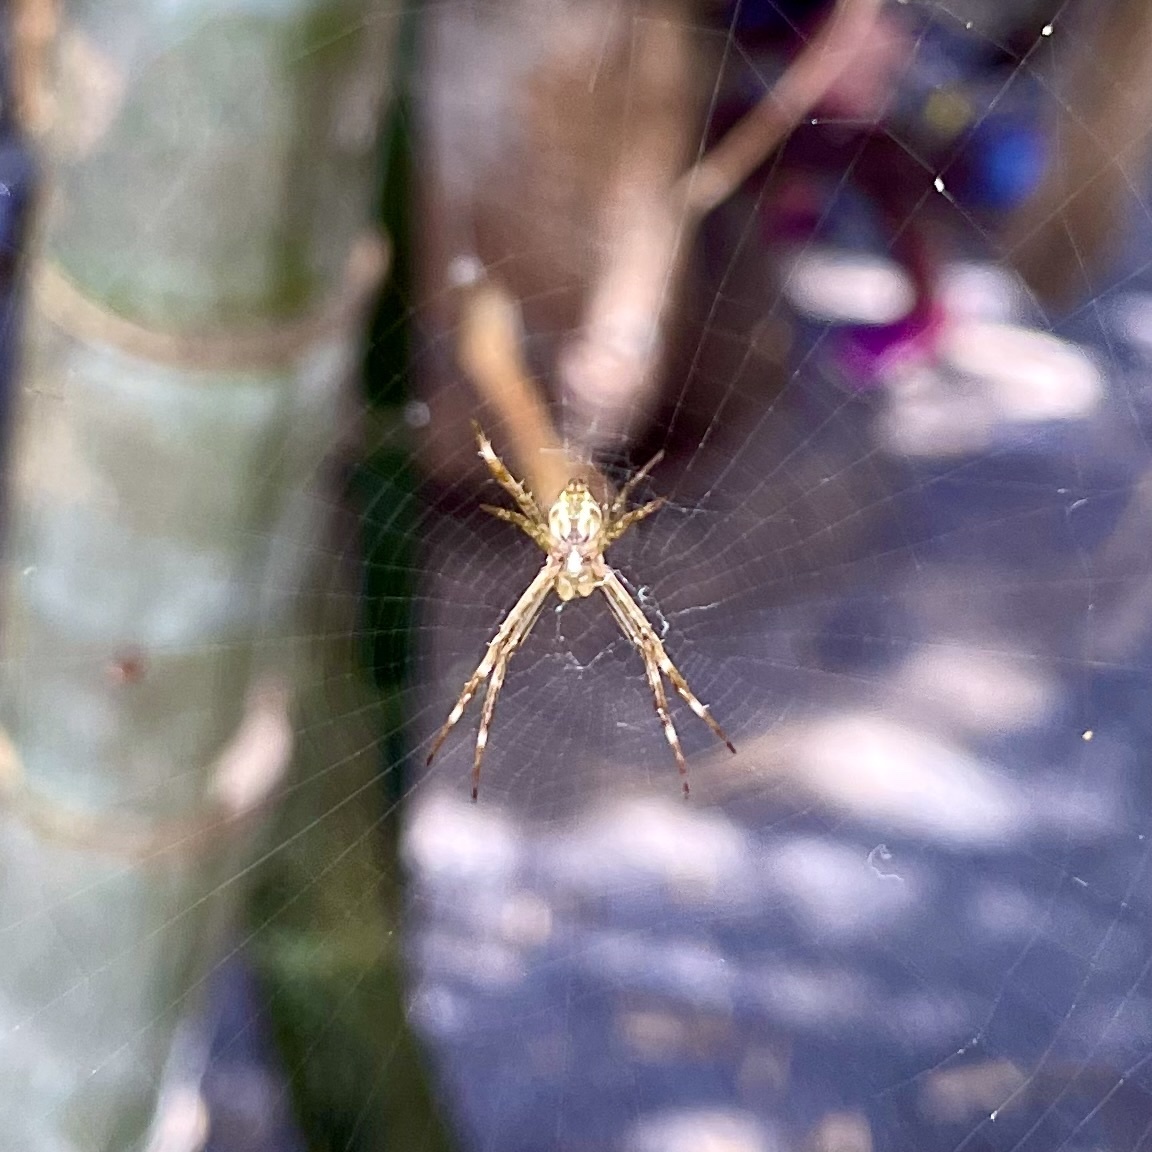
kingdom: Animalia
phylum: Arthropoda
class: Arachnida
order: Araneae
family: Araneidae
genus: Argiope
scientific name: Argiope appensa
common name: Garden spider
